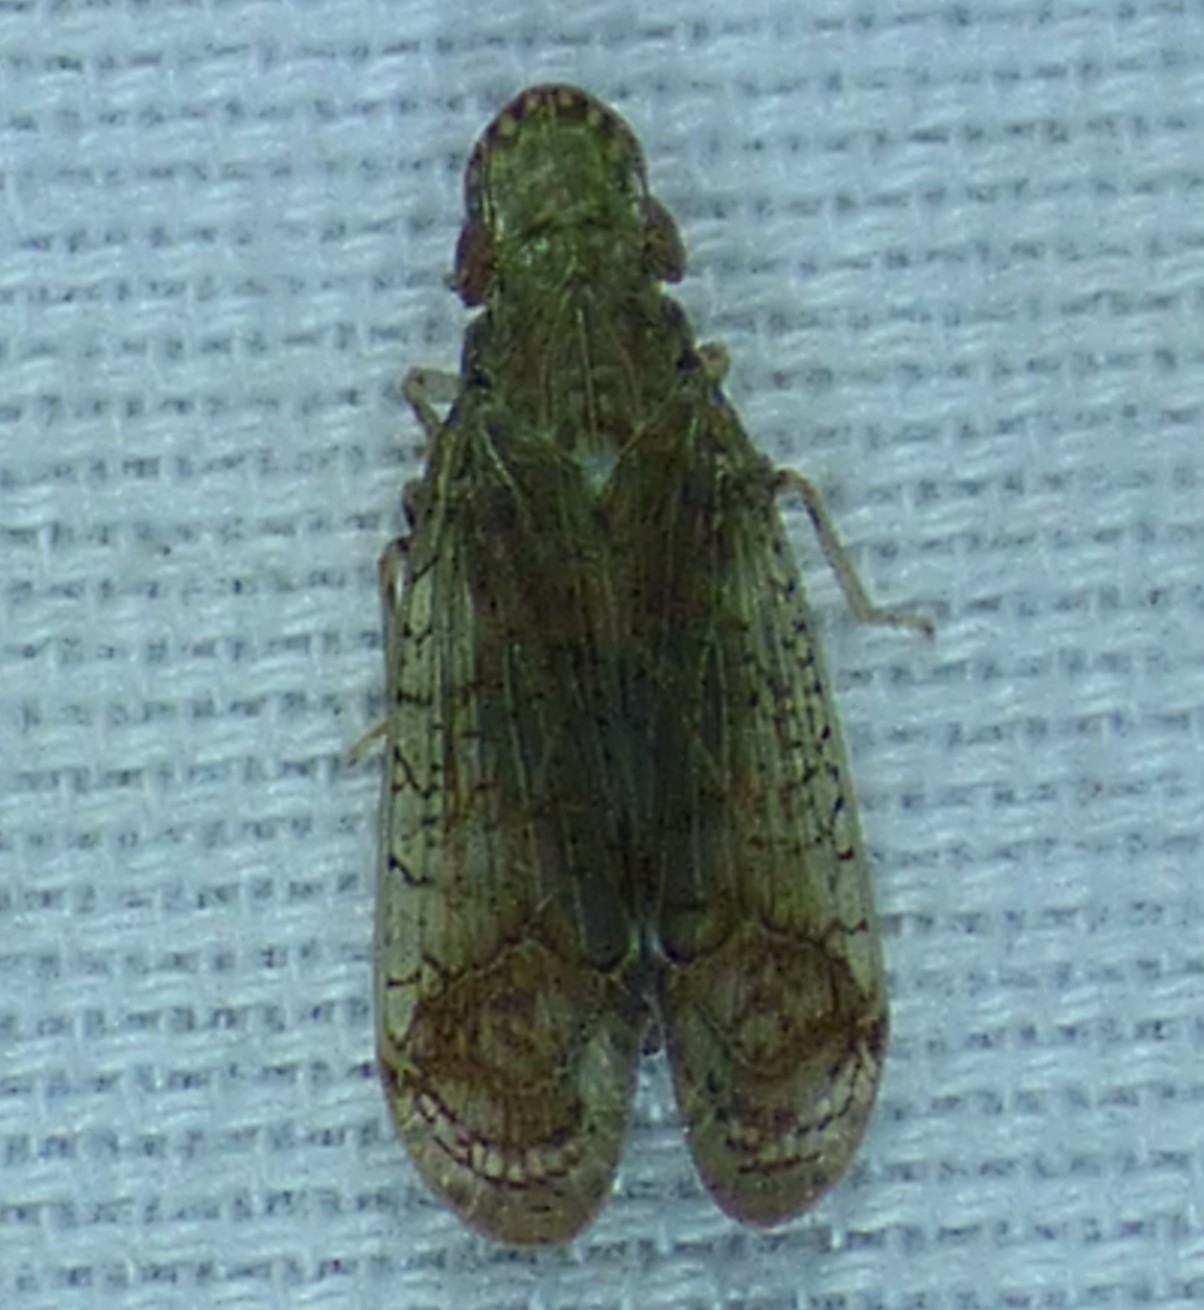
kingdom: Animalia
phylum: Arthropoda
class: Insecta
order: Hemiptera
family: Tropiduchidae
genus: Pelitropis
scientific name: Pelitropis rotulata
